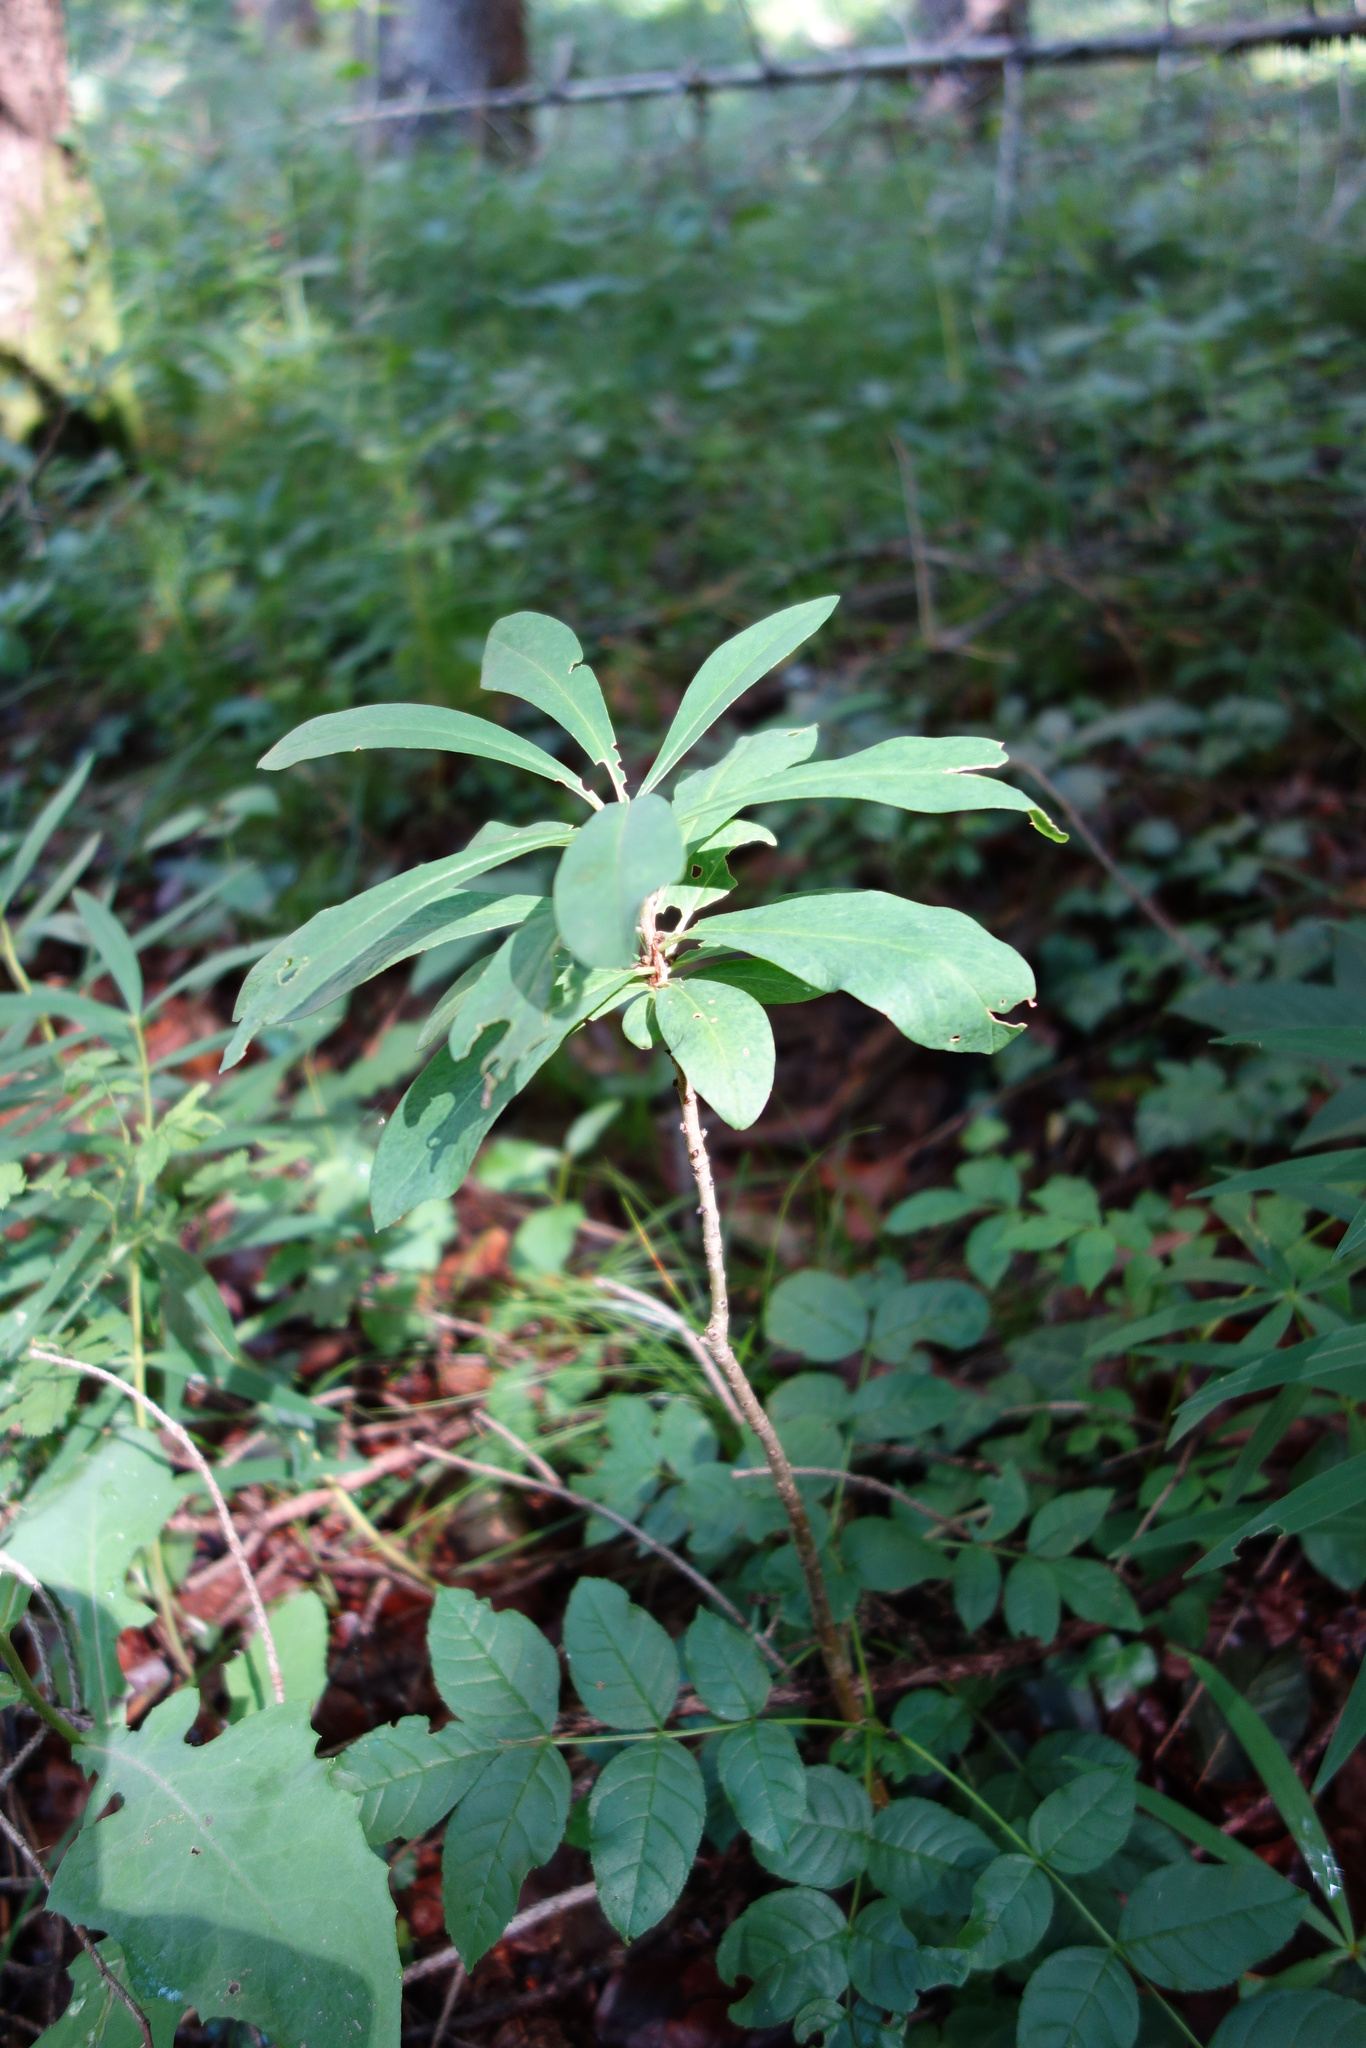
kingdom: Plantae
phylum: Tracheophyta
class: Magnoliopsida
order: Malvales
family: Thymelaeaceae
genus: Daphne
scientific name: Daphne mezereum
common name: Mezereon
